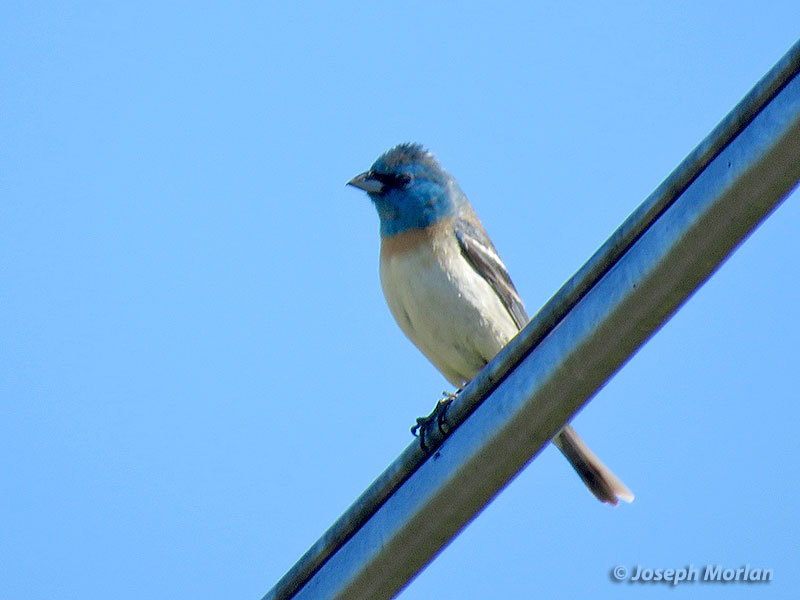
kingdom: Animalia
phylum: Chordata
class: Aves
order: Passeriformes
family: Cardinalidae
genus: Passerina
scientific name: Passerina amoena
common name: Lazuli bunting
